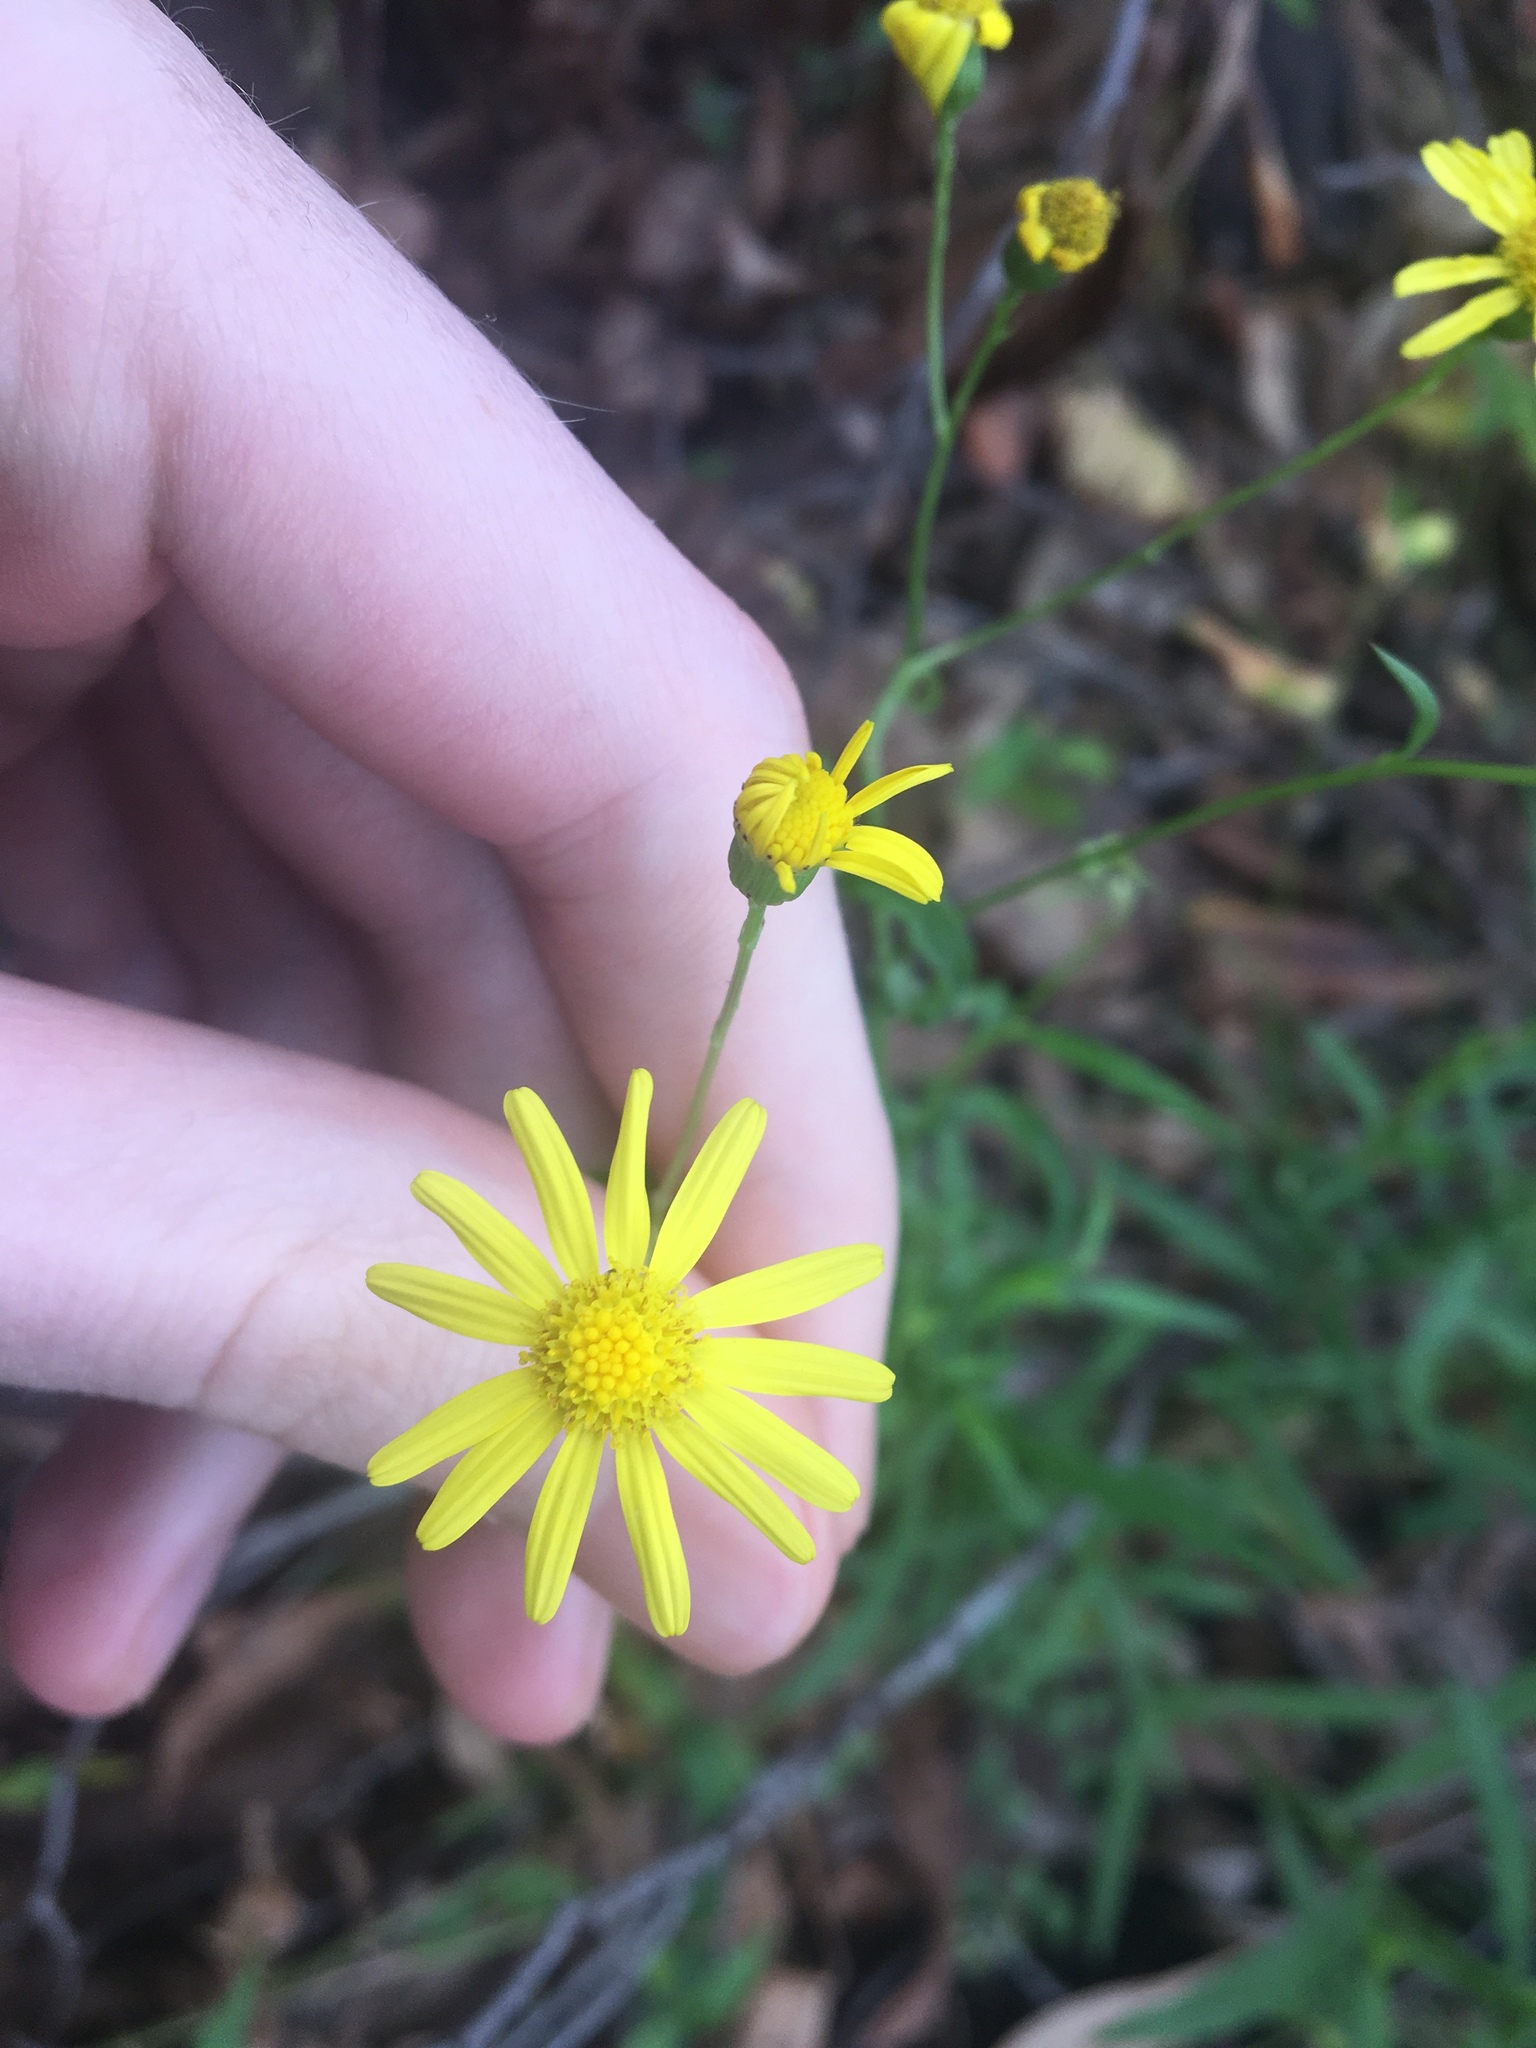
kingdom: Plantae
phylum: Tracheophyta
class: Magnoliopsida
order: Asterales
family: Asteraceae
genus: Senecio
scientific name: Senecio madagascariensis
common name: Madagascar ragwort
